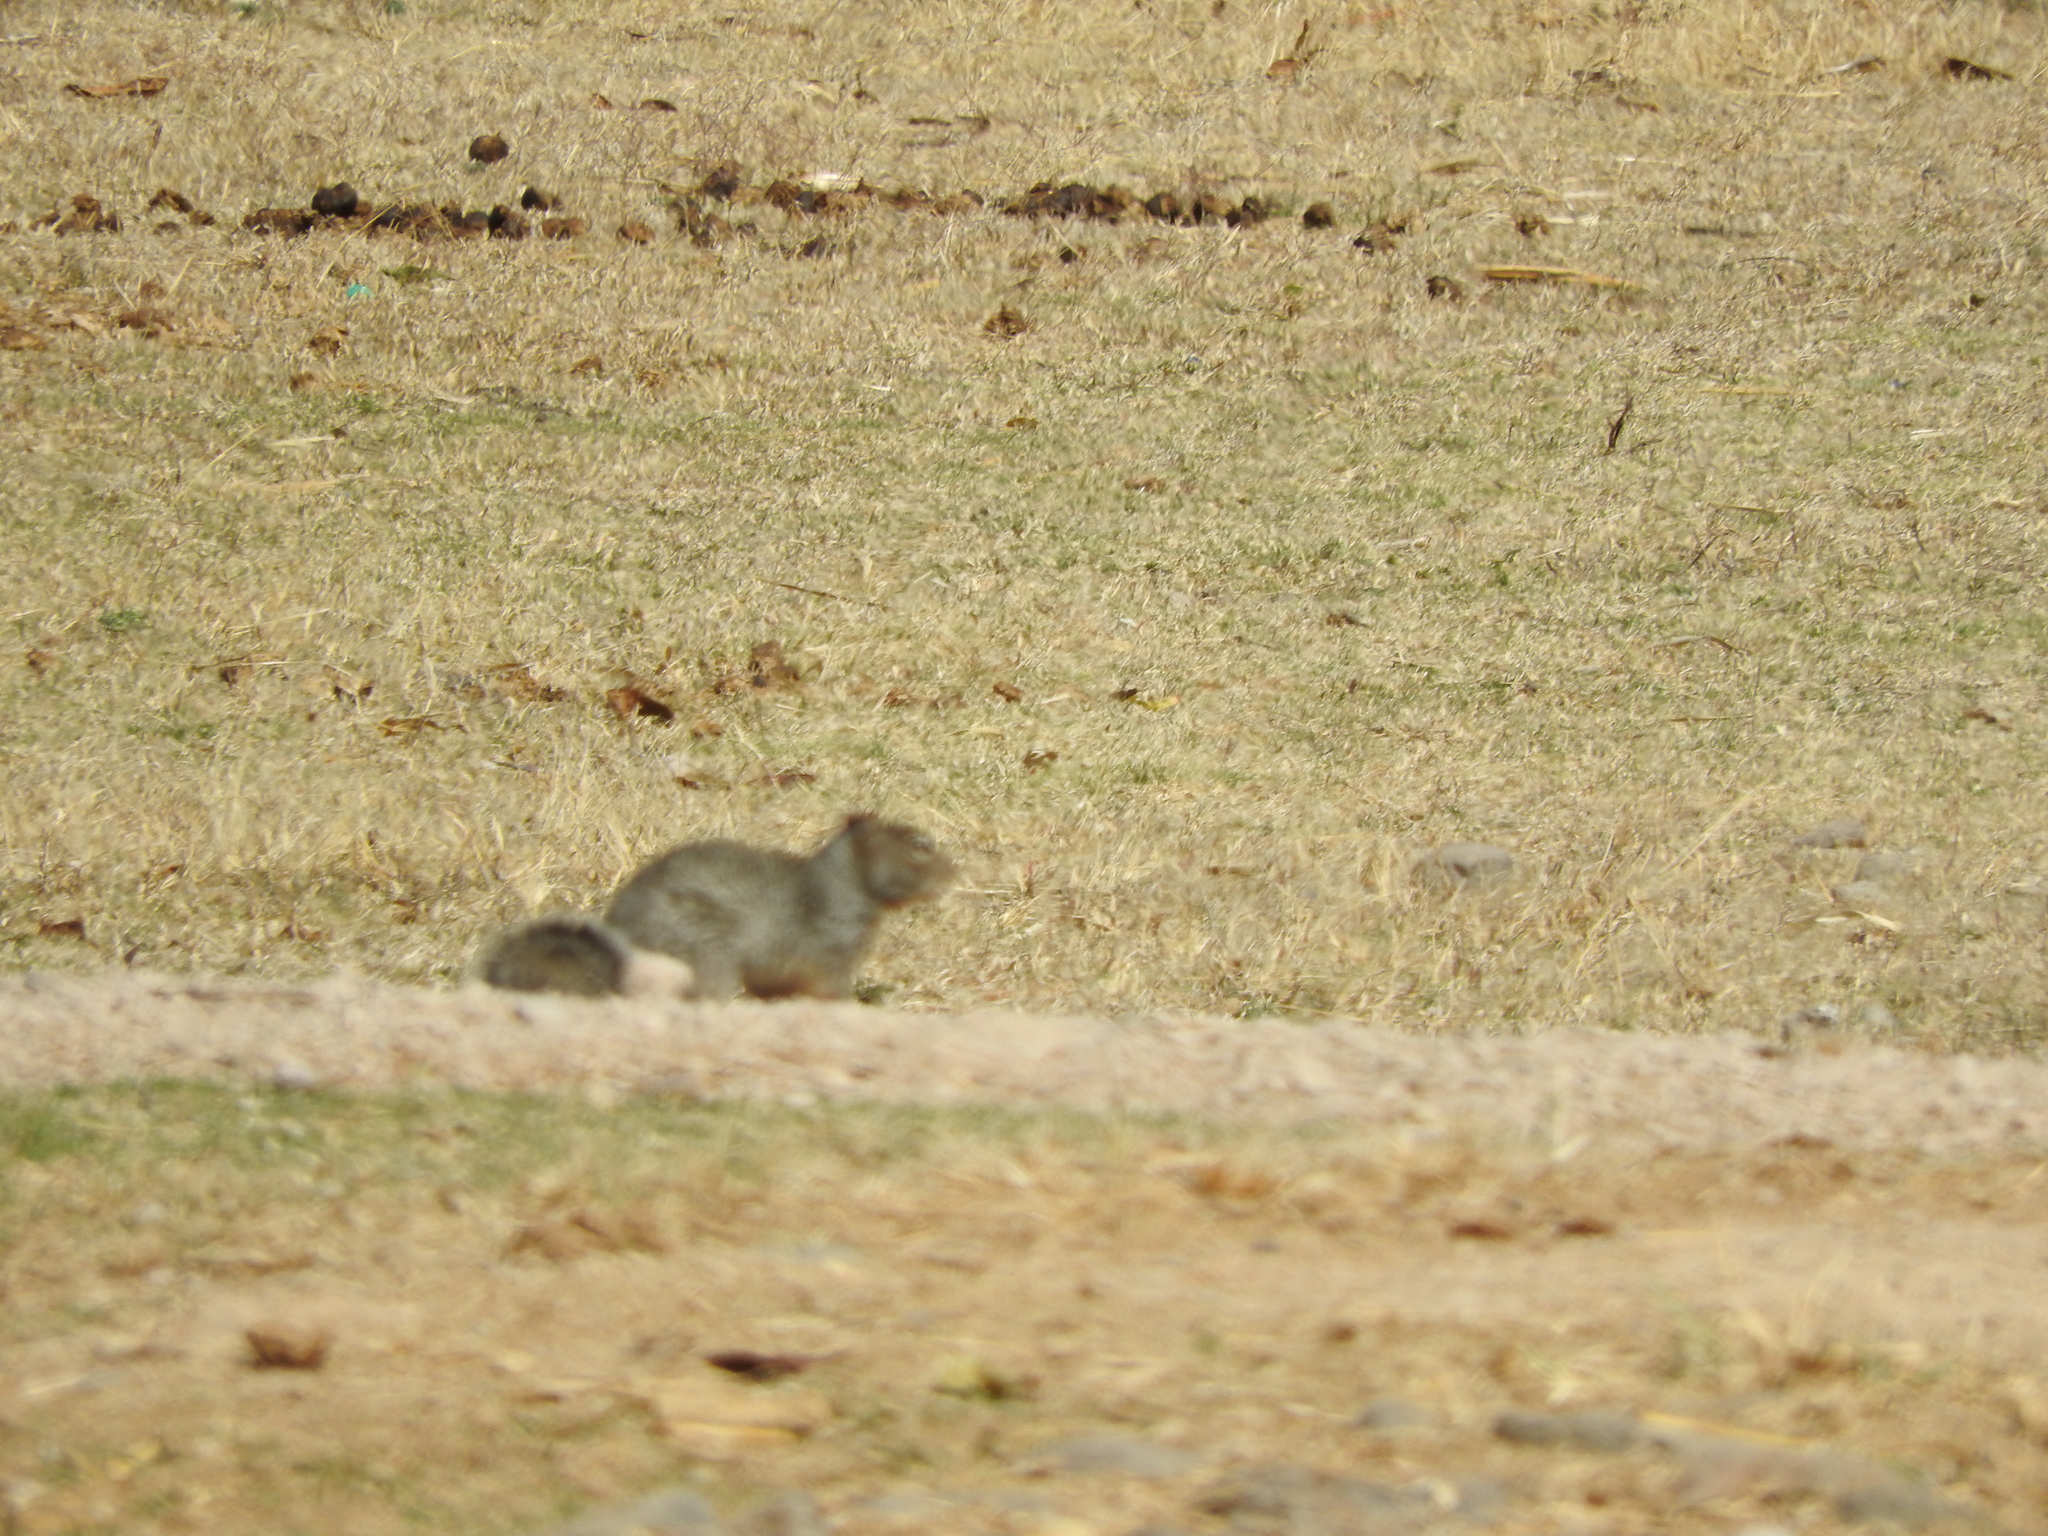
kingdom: Animalia
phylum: Chordata
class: Mammalia
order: Rodentia
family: Sciuridae
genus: Otospermophilus
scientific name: Otospermophilus variegatus
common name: Rock squirrel
